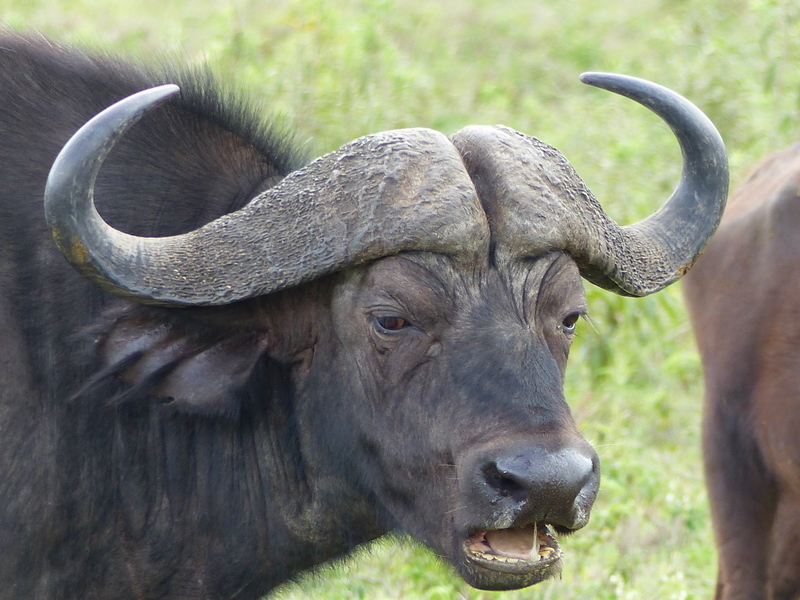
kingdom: Animalia
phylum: Chordata
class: Mammalia
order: Artiodactyla
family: Bovidae
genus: Syncerus
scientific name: Syncerus caffer
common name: African buffalo
